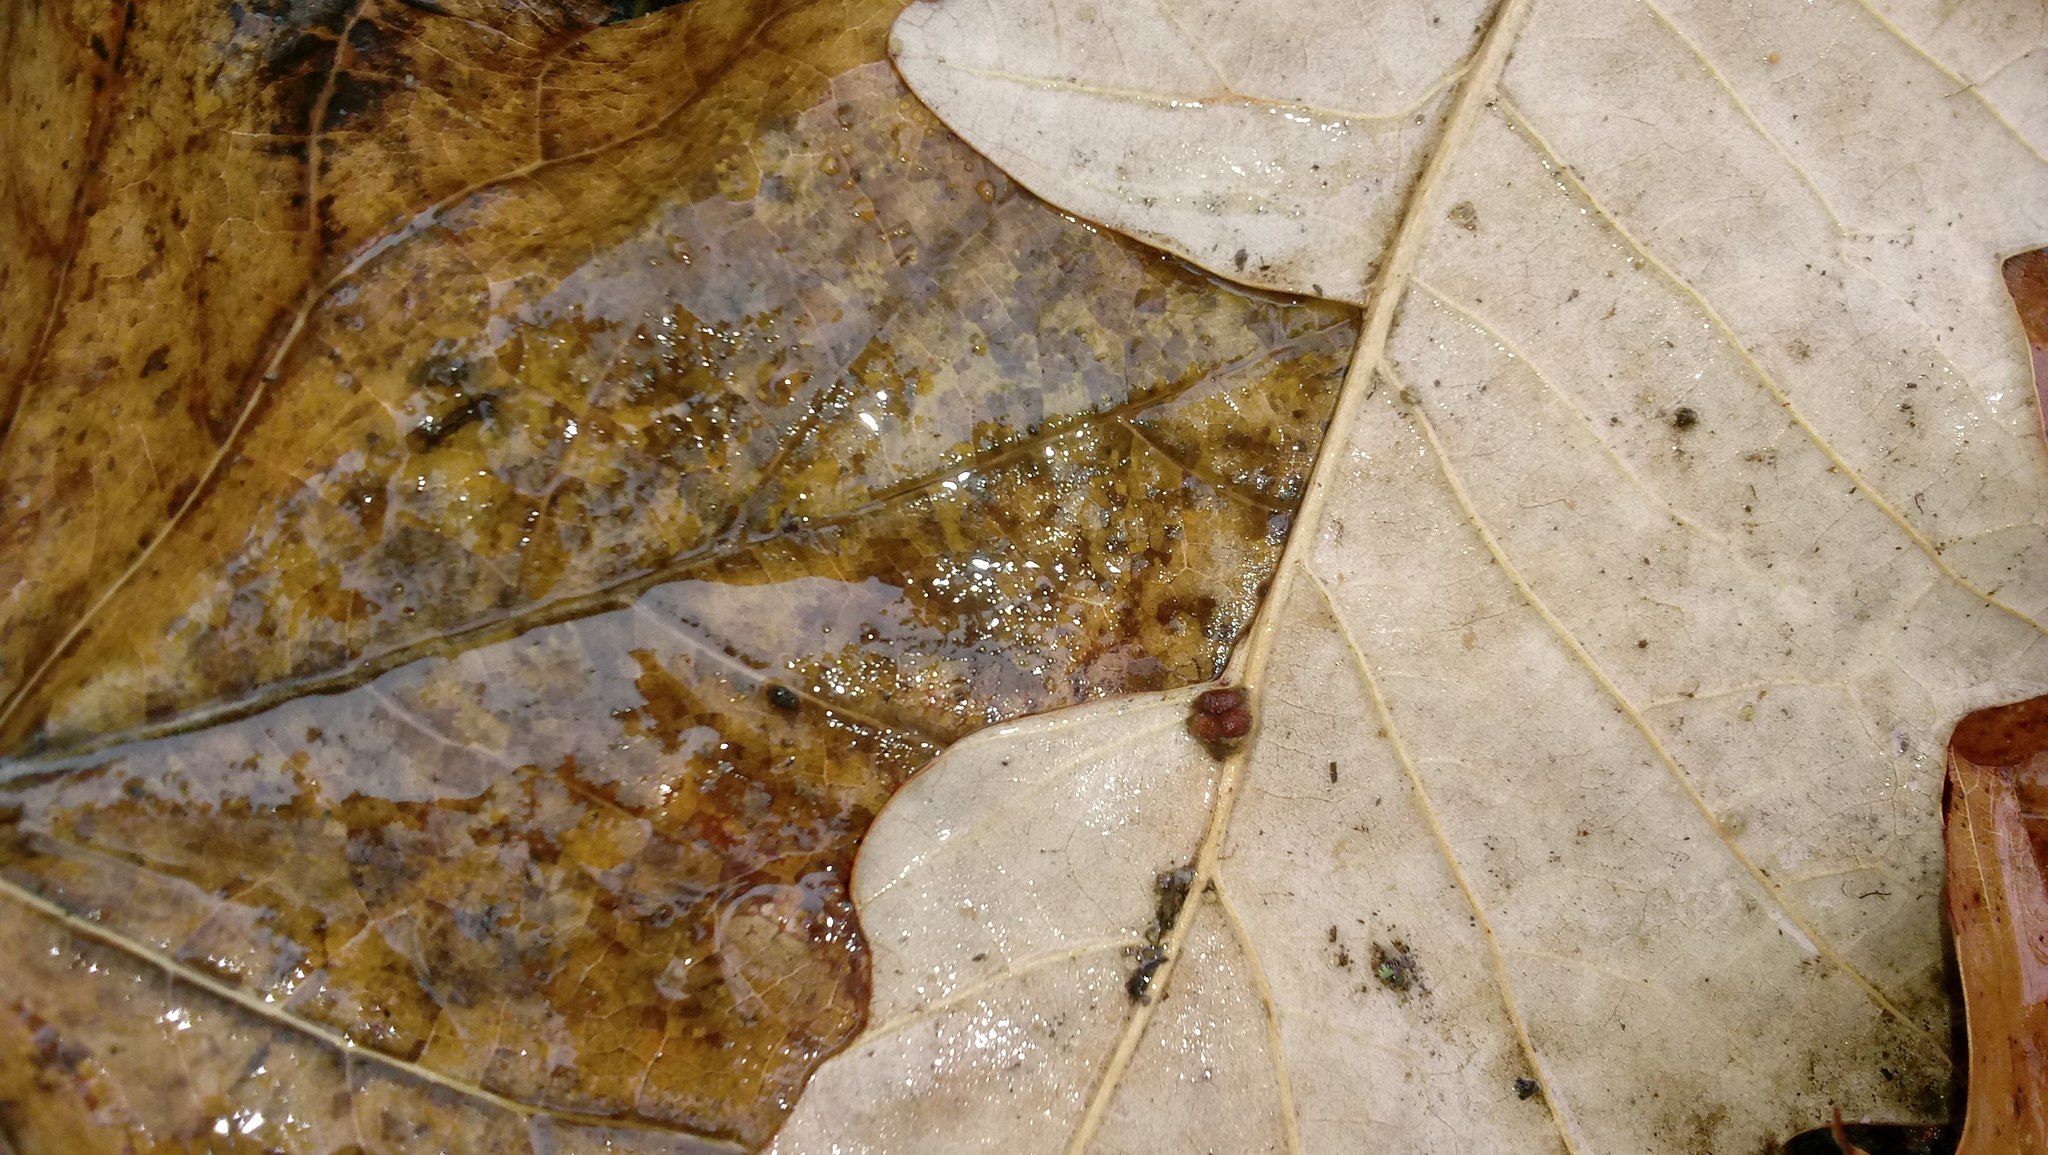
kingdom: Animalia
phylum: Arthropoda
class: Insecta
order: Hymenoptera
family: Cynipidae
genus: Andricus
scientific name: Andricus Druon ignotum
